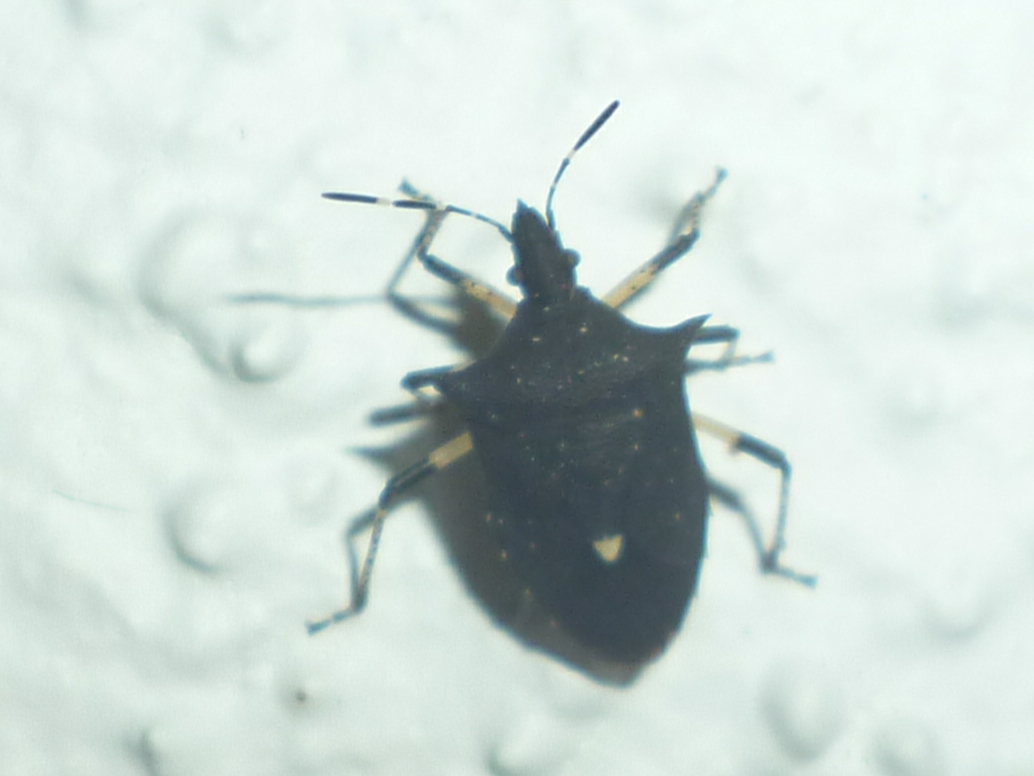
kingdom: Animalia
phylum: Arthropoda
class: Insecta
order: Hemiptera
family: Pentatomidae
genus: Proxys
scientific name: Proxys punctulatus
